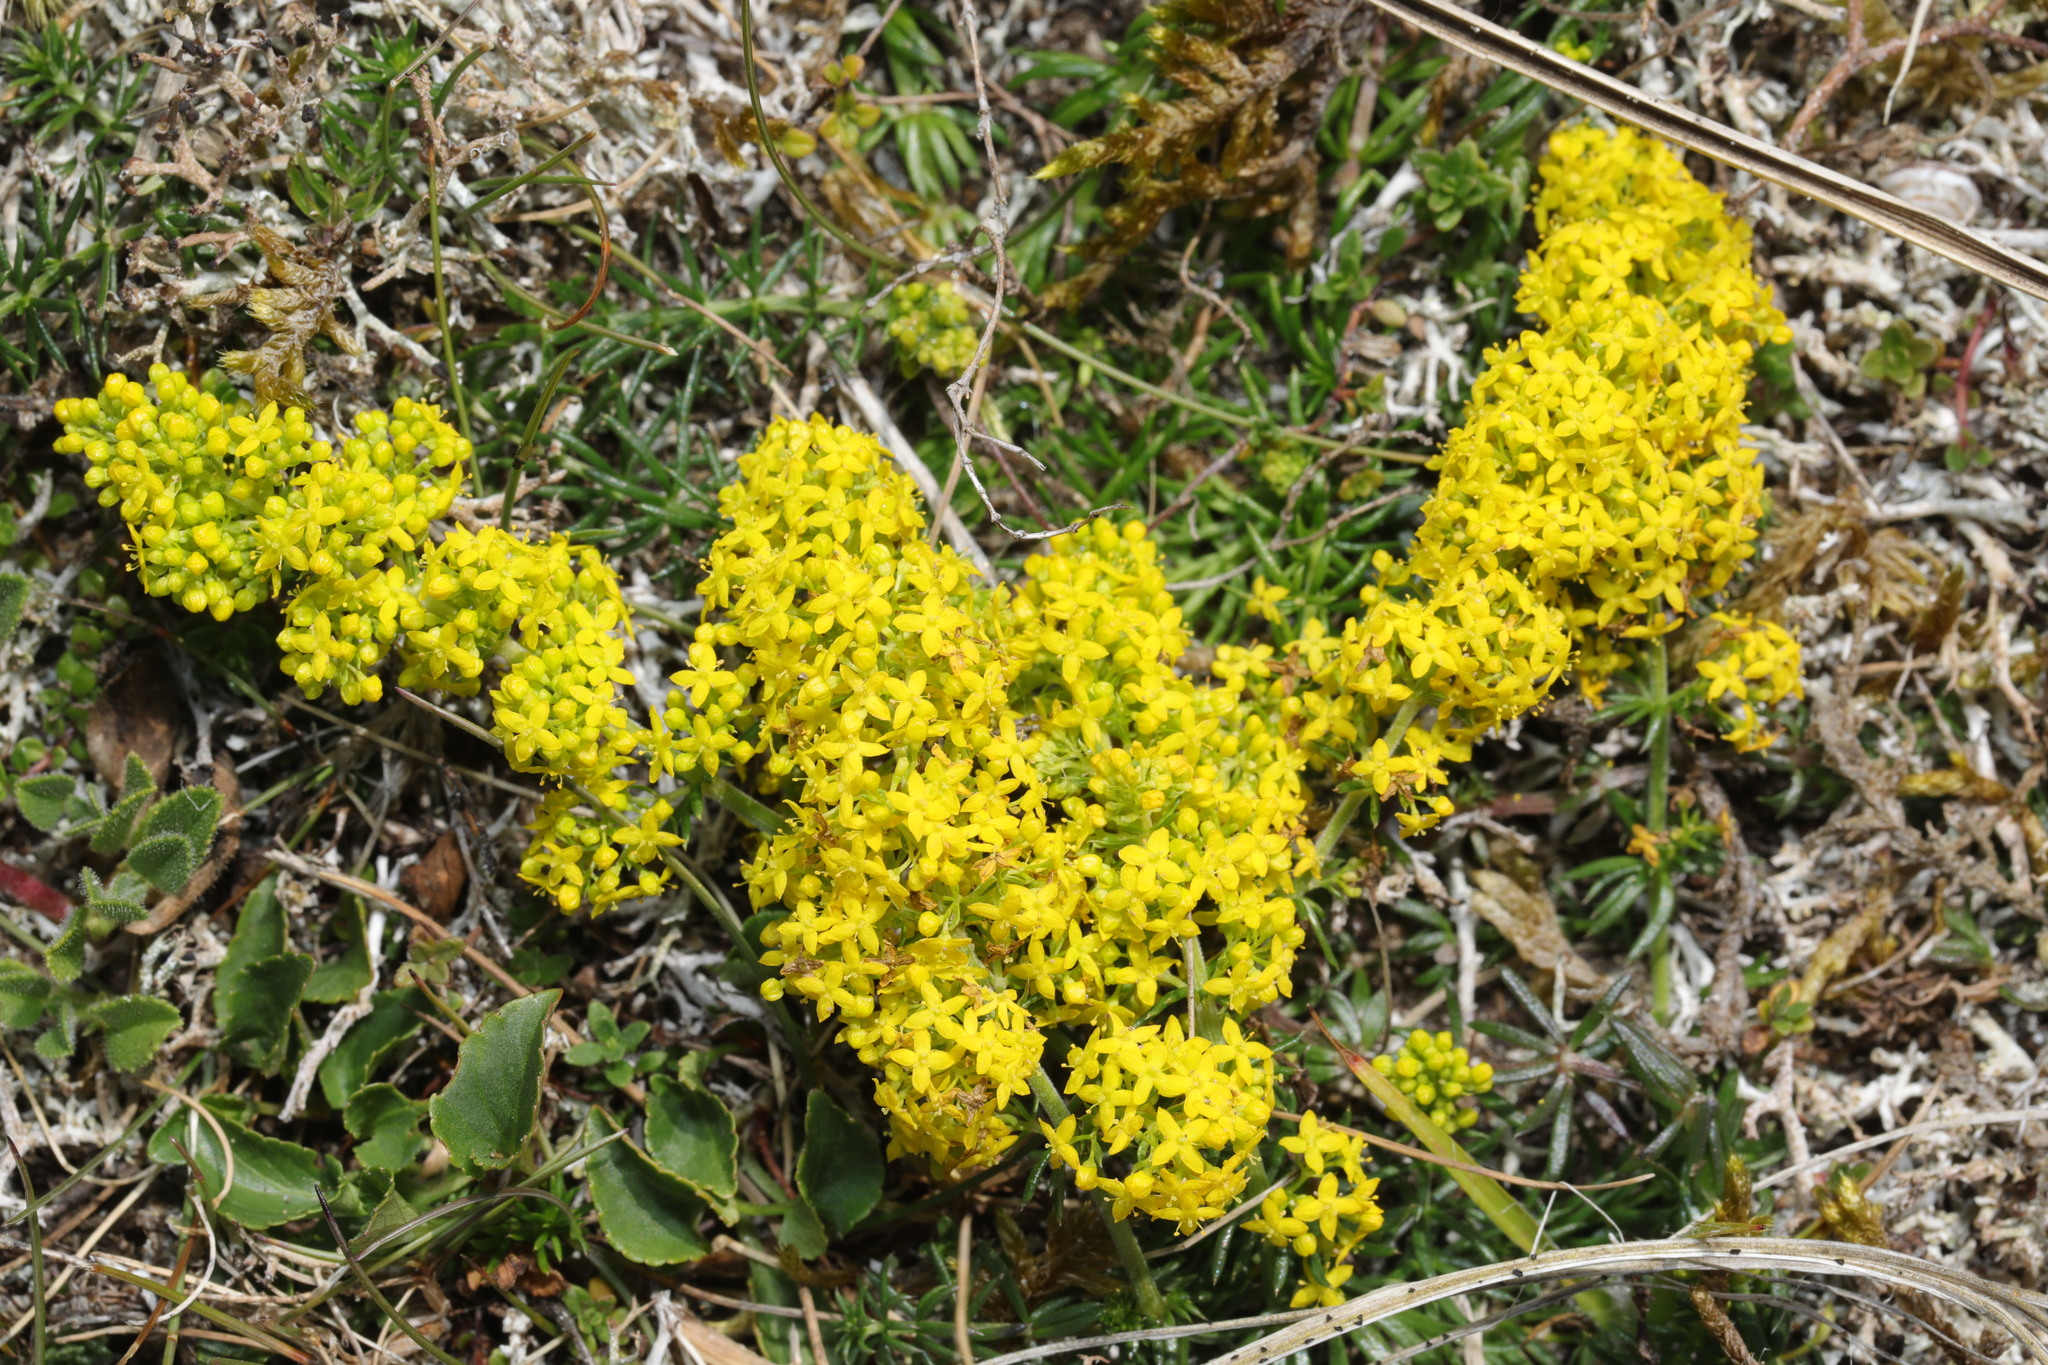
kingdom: Plantae
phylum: Tracheophyta
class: Magnoliopsida
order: Gentianales
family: Rubiaceae
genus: Galium
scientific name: Galium verum
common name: Lady's bedstraw
